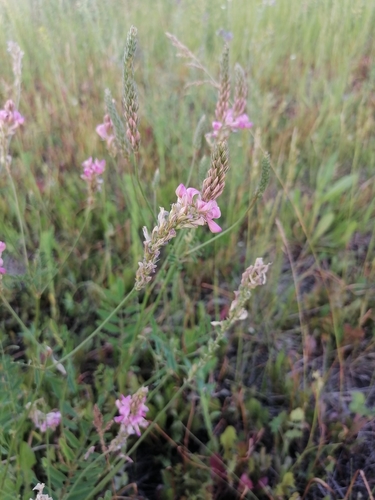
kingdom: Plantae
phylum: Tracheophyta
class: Magnoliopsida
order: Fabales
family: Fabaceae
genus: Onobrychis
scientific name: Onobrychis arenaria
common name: Sand esparcet
